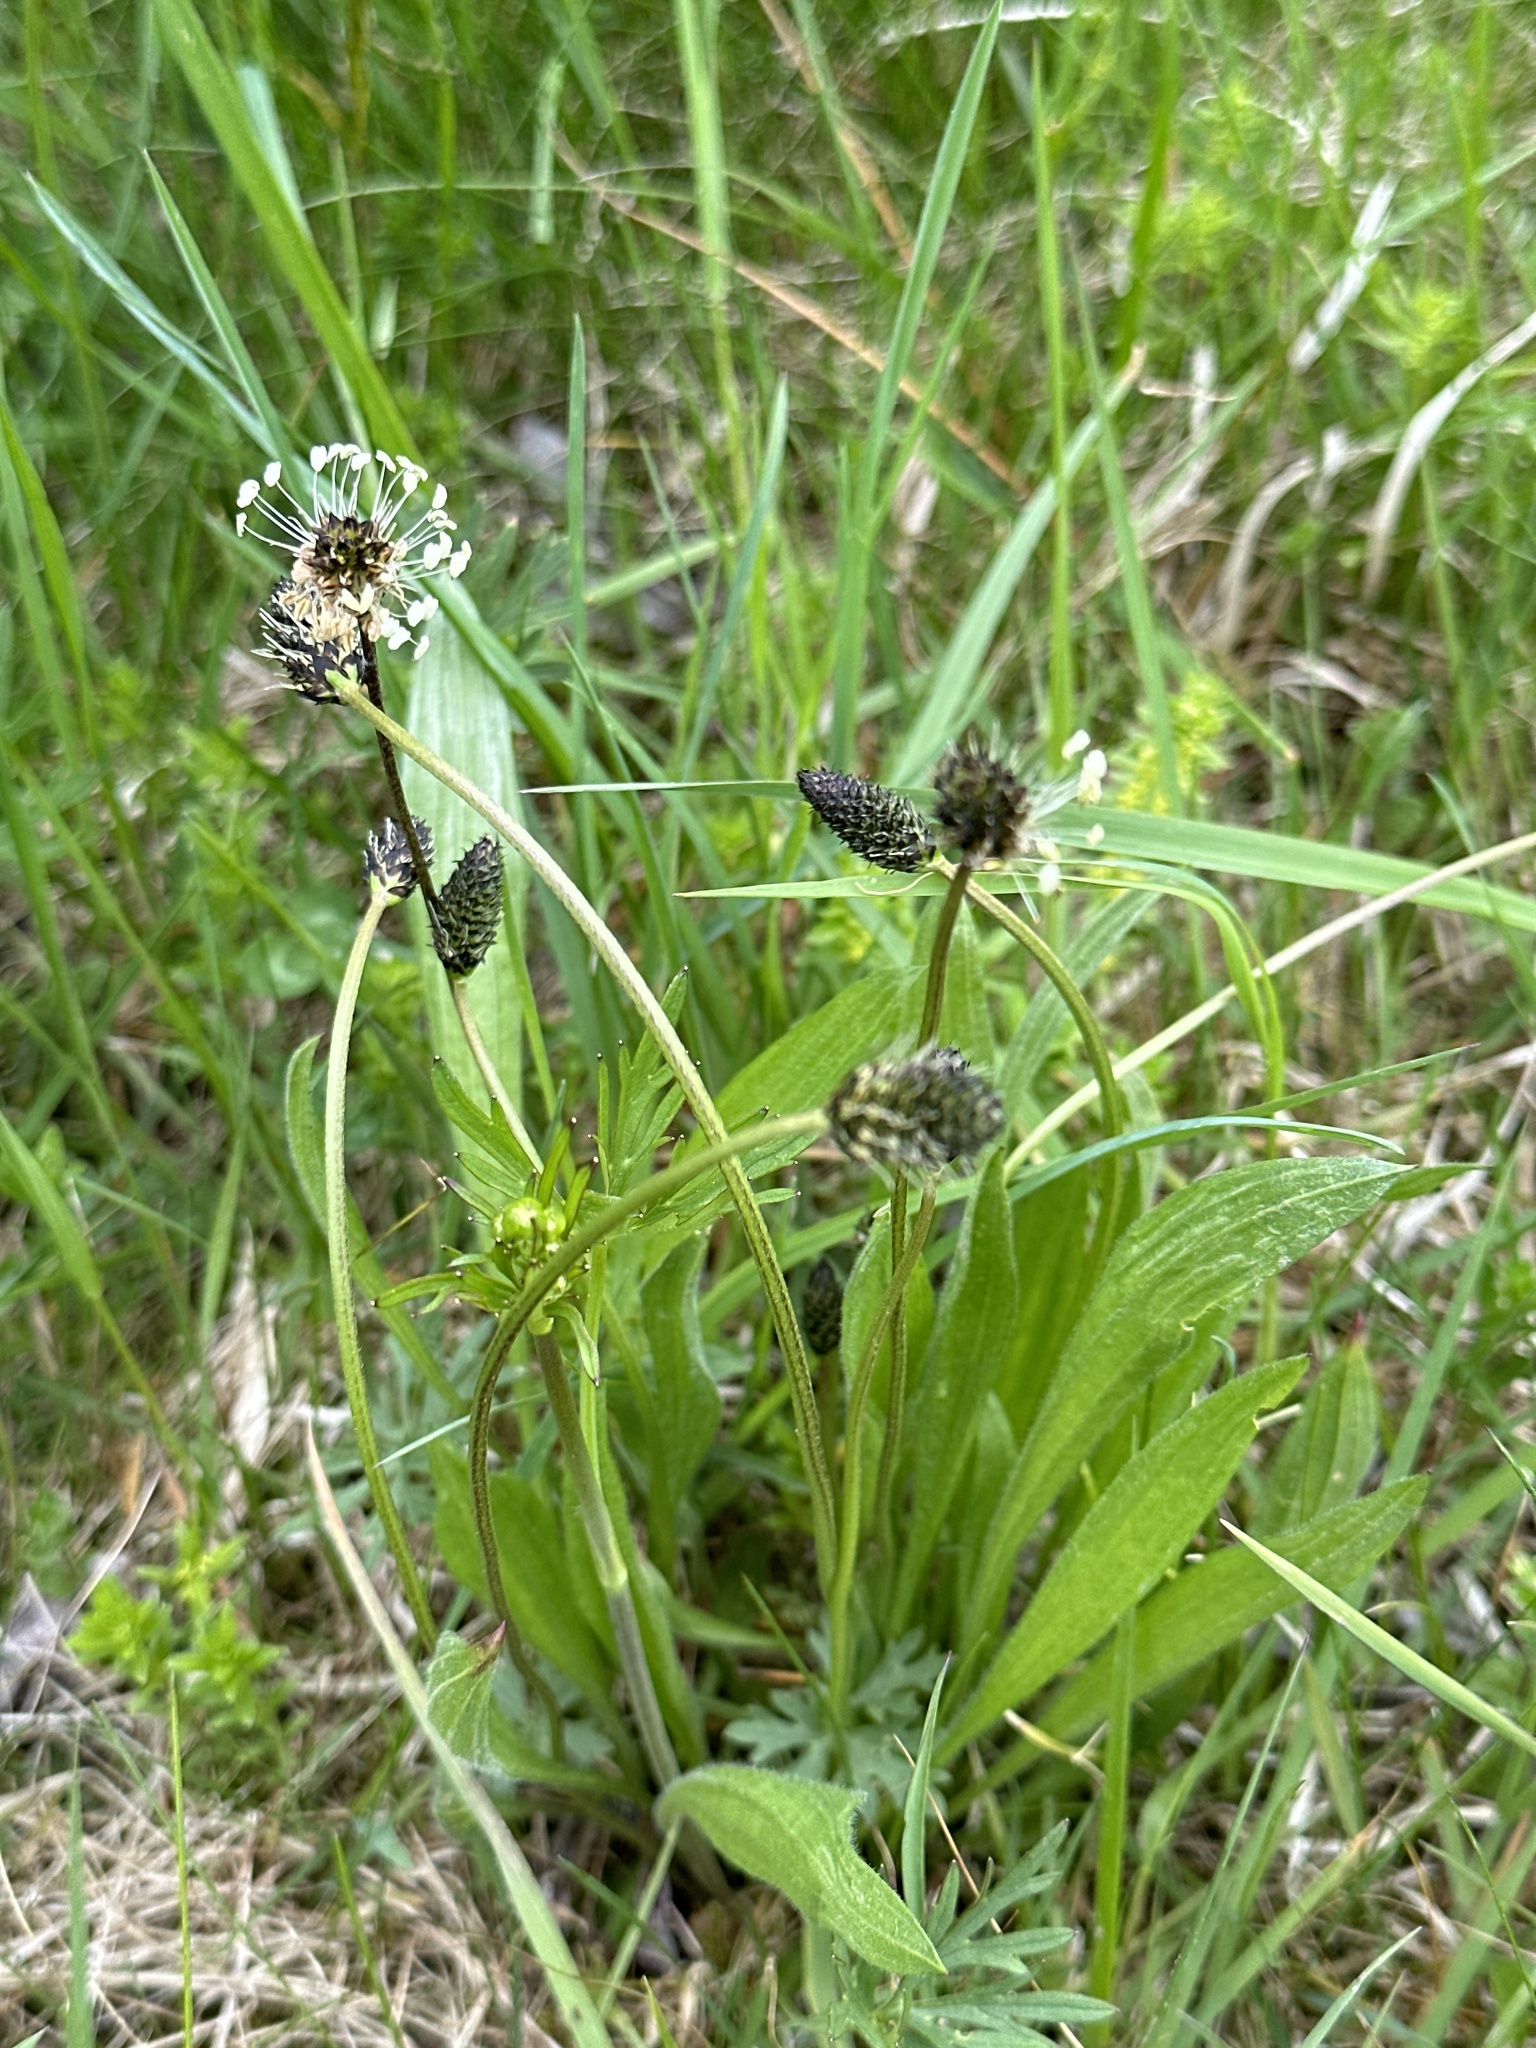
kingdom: Plantae
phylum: Tracheophyta
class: Magnoliopsida
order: Lamiales
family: Plantaginaceae
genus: Plantago
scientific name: Plantago lanceolata
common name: Ribwort plantain
